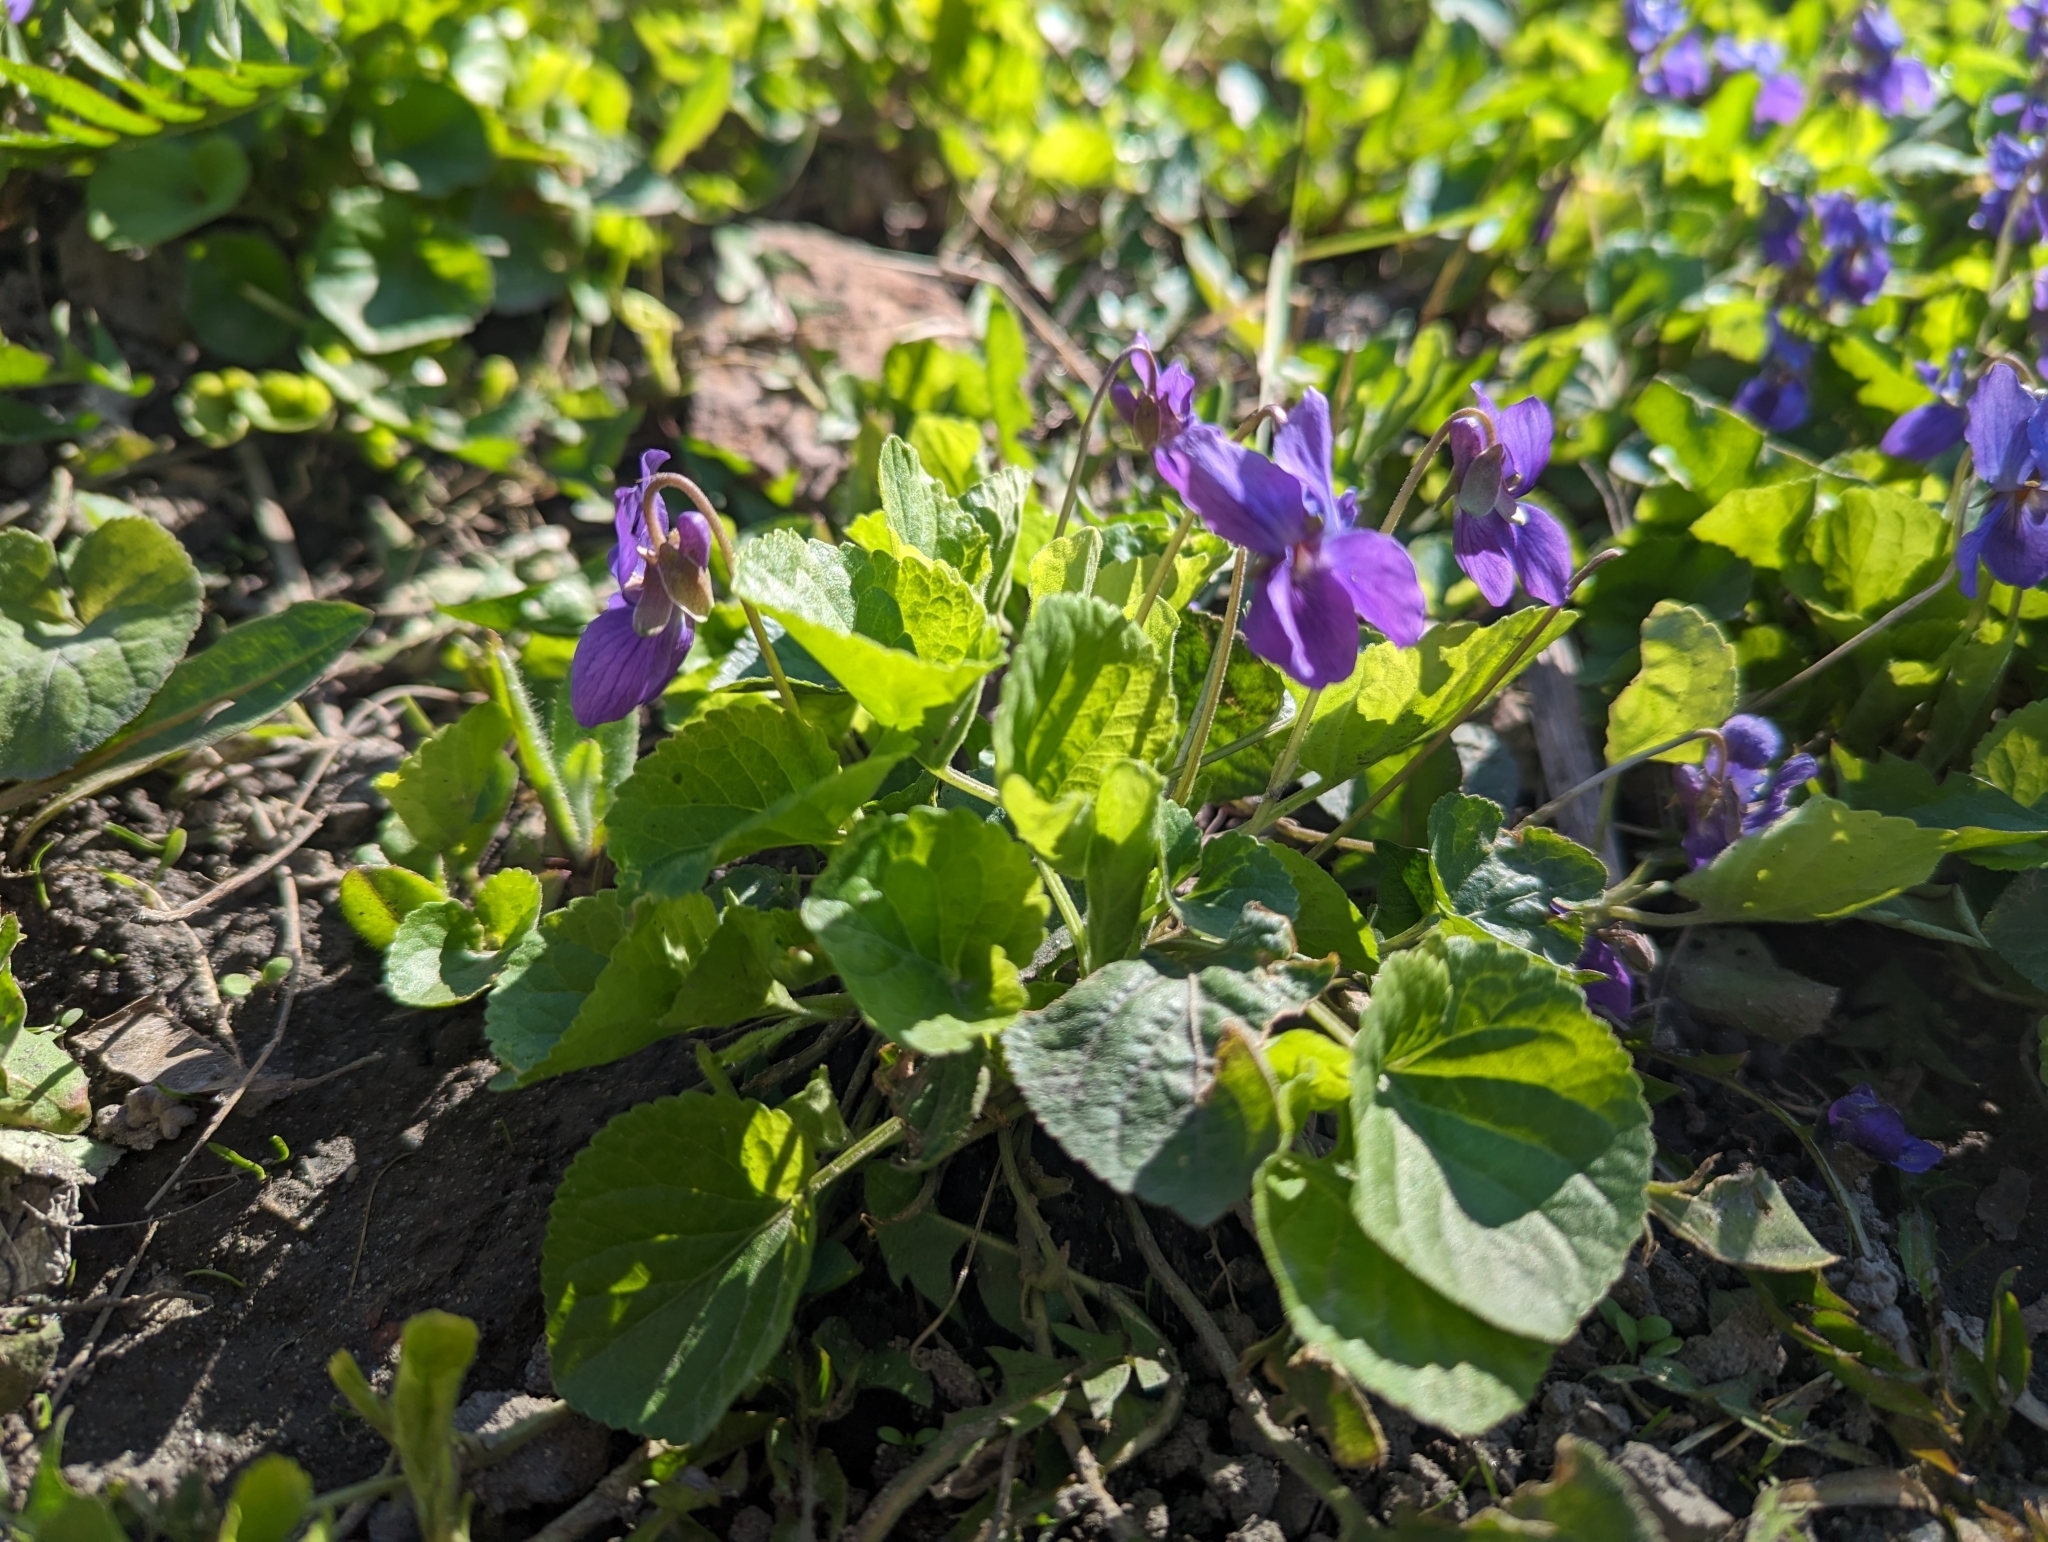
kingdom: Plantae
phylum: Tracheophyta
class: Magnoliopsida
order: Malpighiales
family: Violaceae
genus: Viola
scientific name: Viola odorata
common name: Sweet violet
